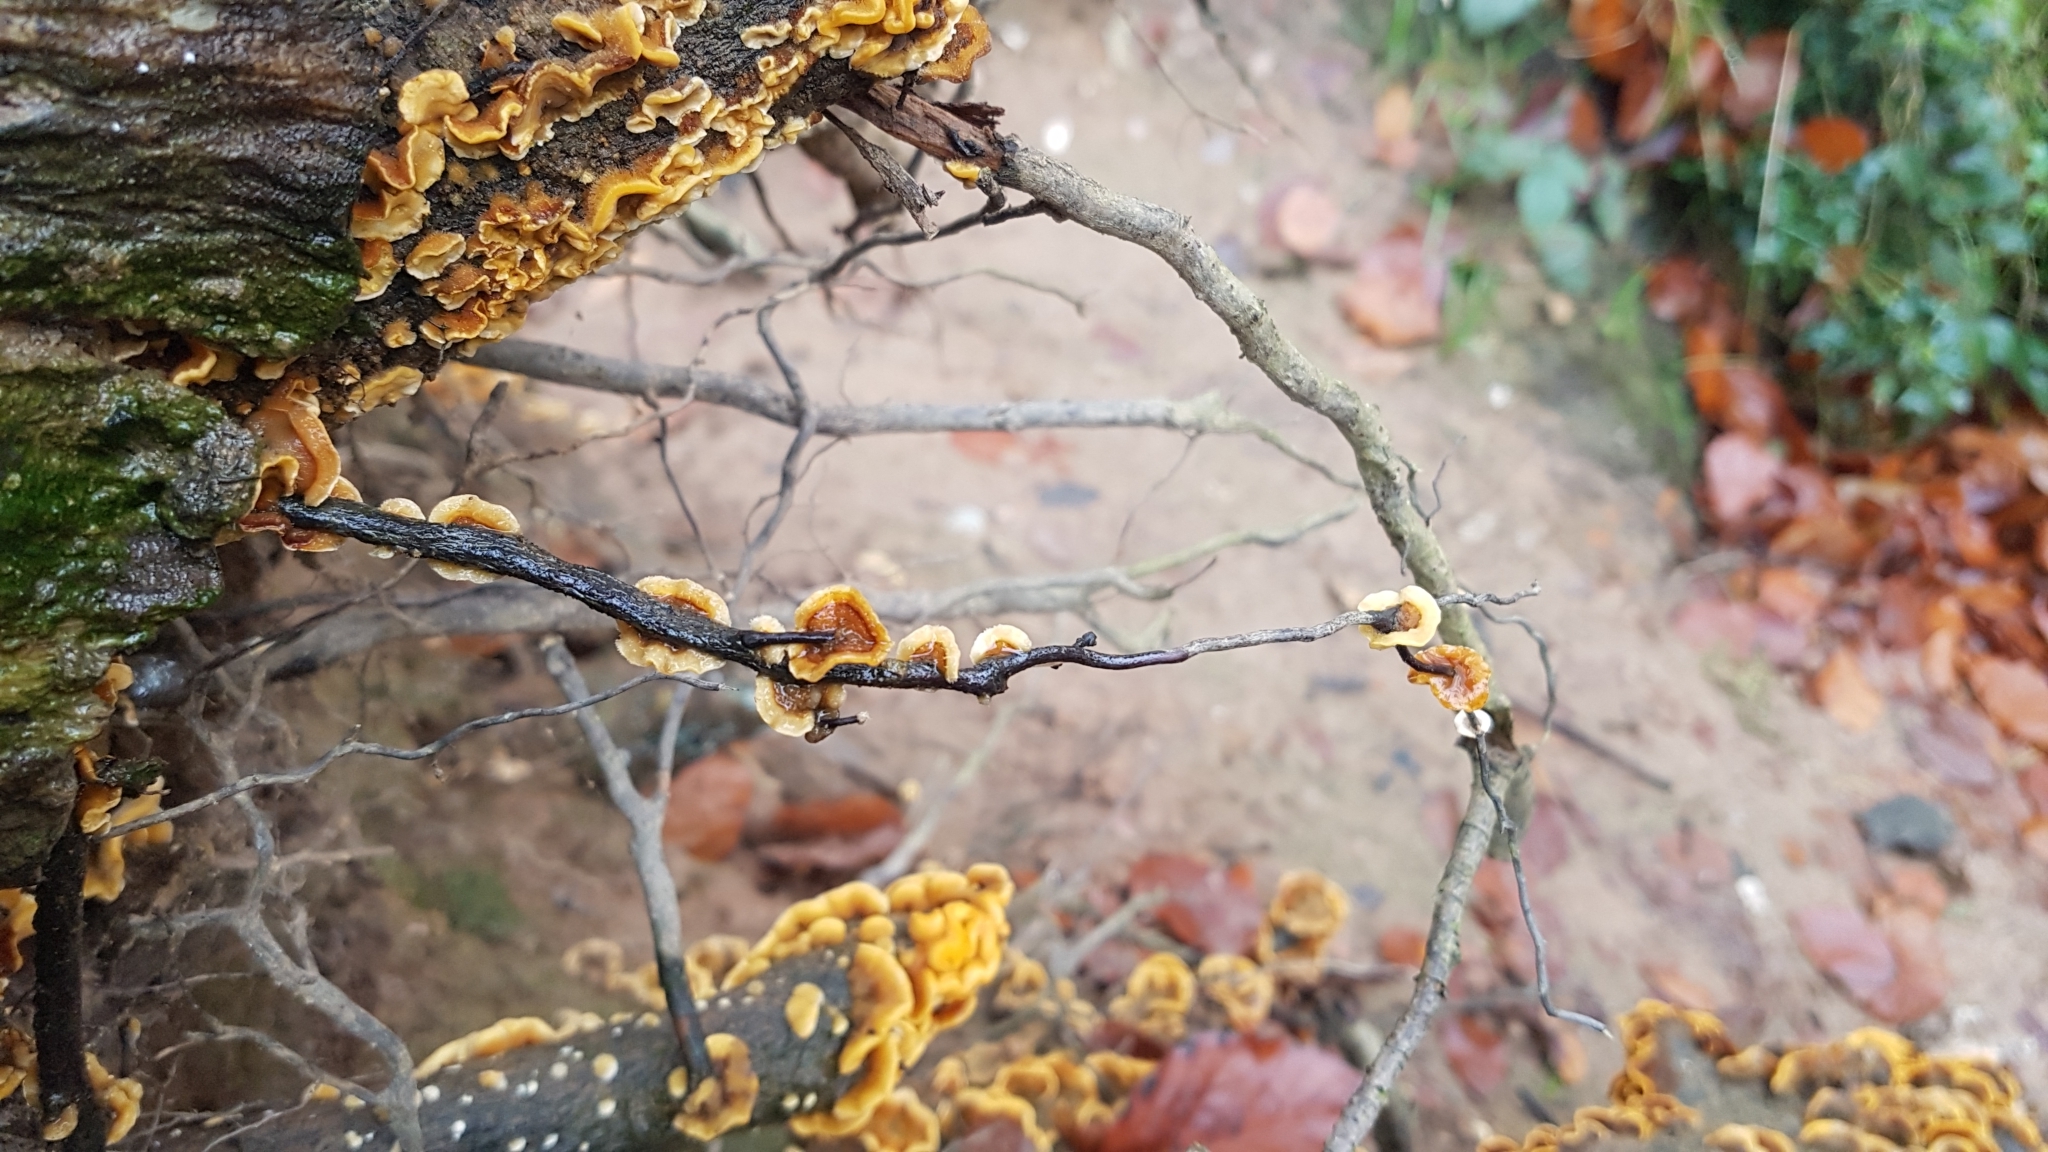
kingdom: Fungi
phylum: Basidiomycota
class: Agaricomycetes
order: Russulales
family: Stereaceae
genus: Stereum
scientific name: Stereum hirsutum
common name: Hairy curtain crust
